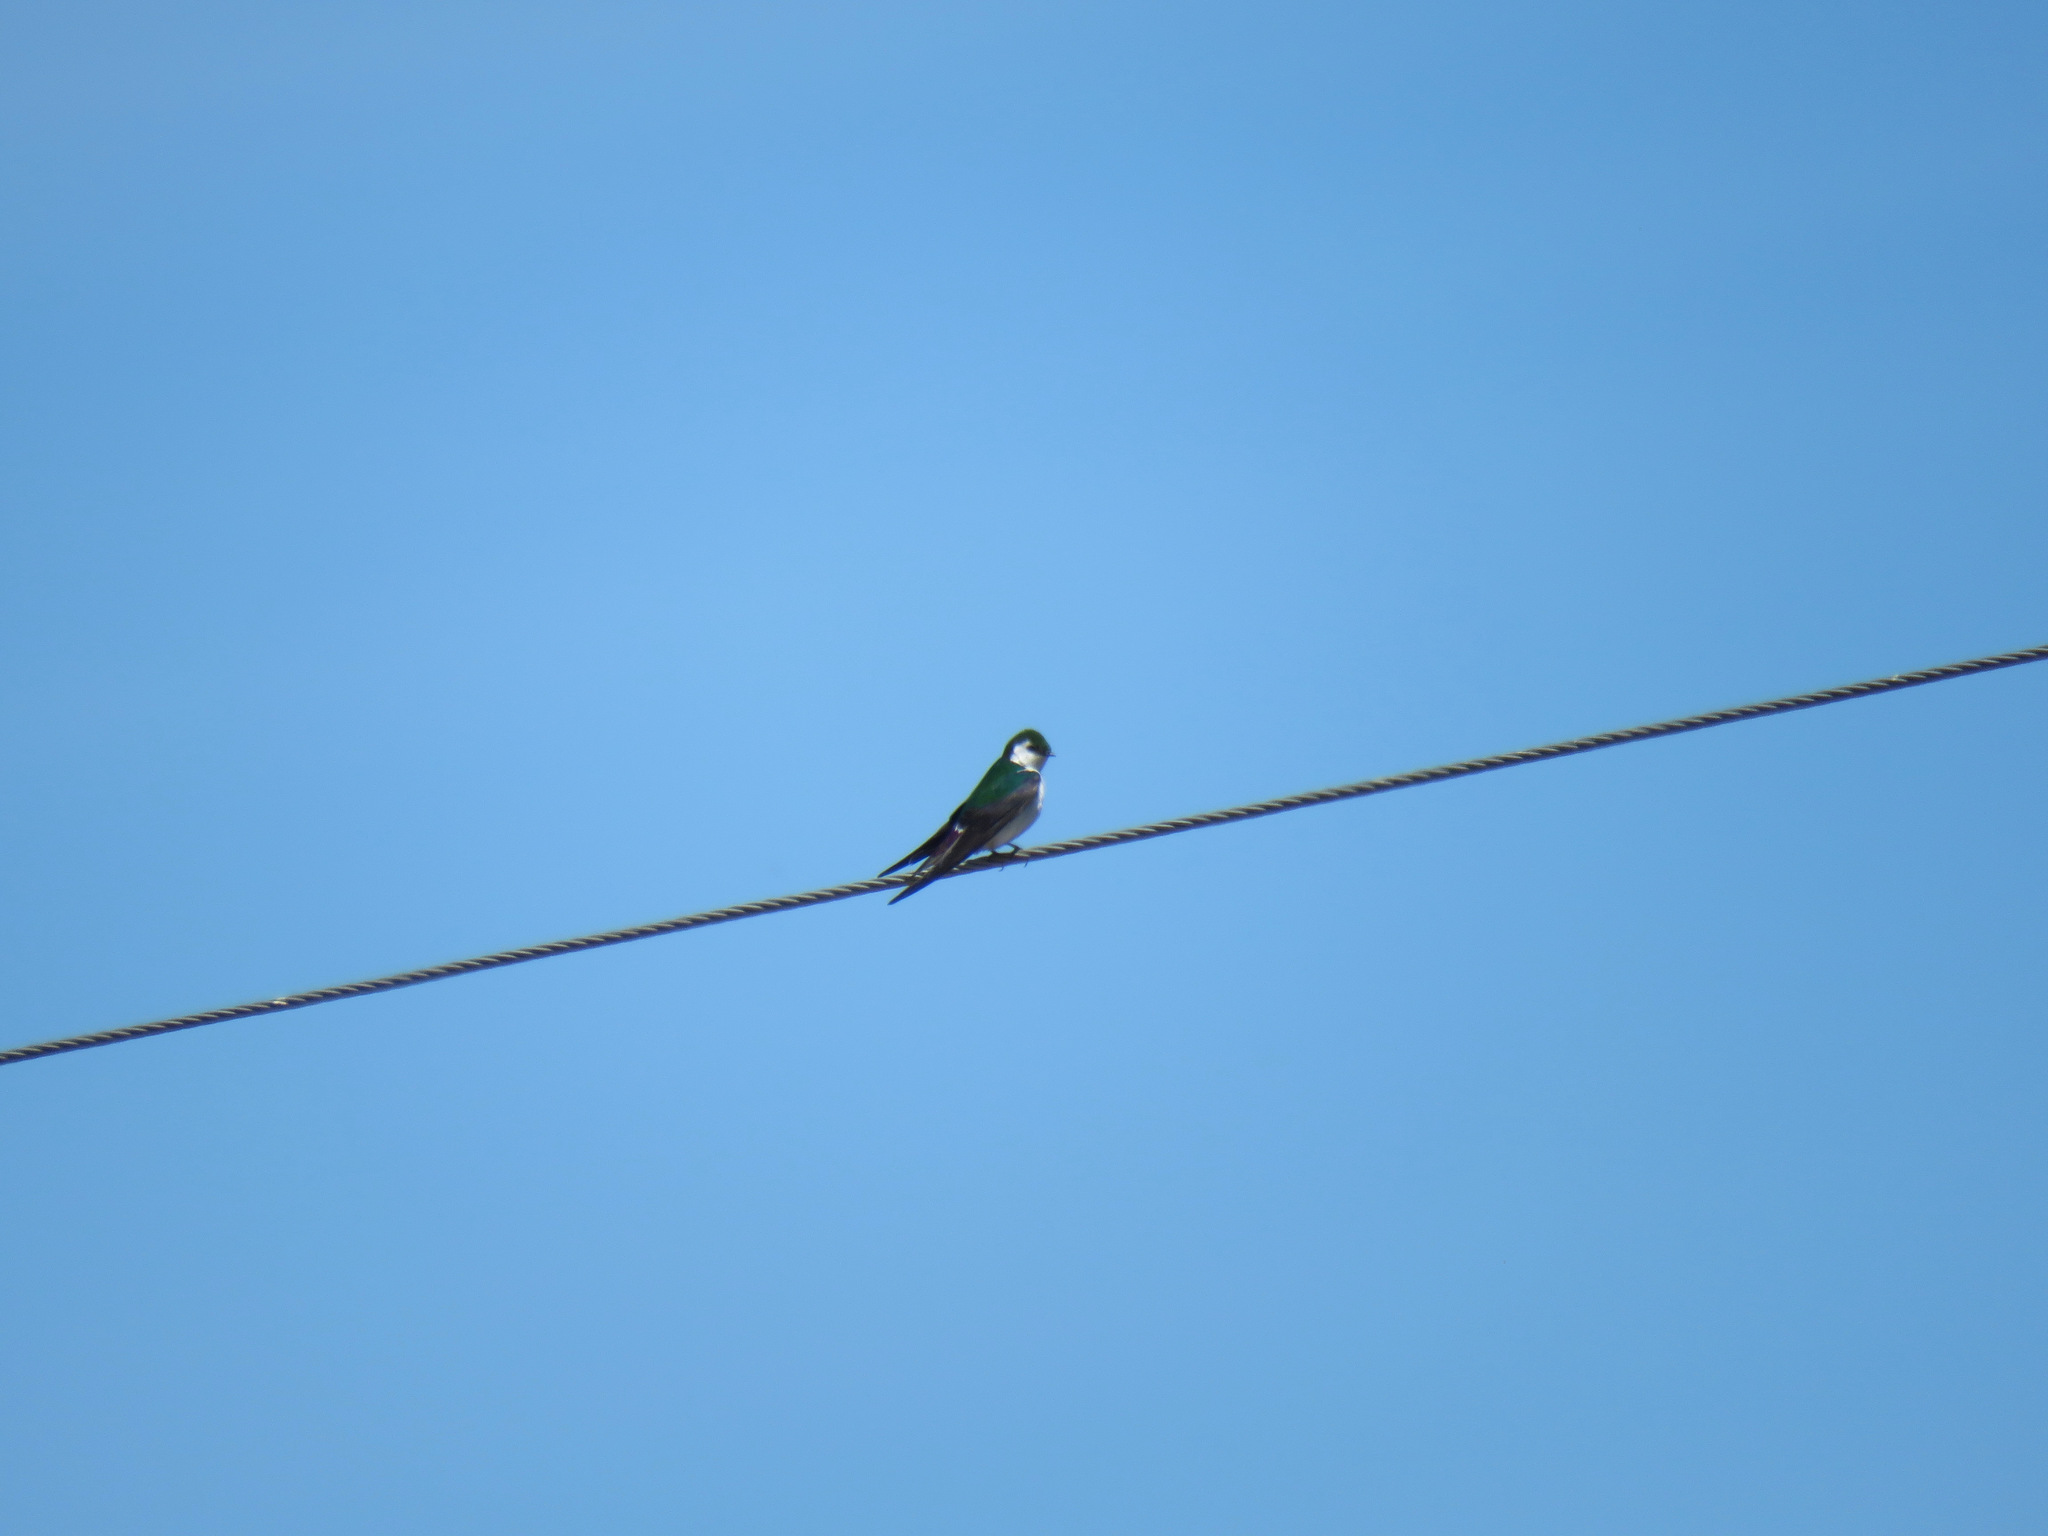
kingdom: Animalia
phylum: Chordata
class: Aves
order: Passeriformes
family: Hirundinidae
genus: Tachycineta
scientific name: Tachycineta thalassina
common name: Violet-green swallow
